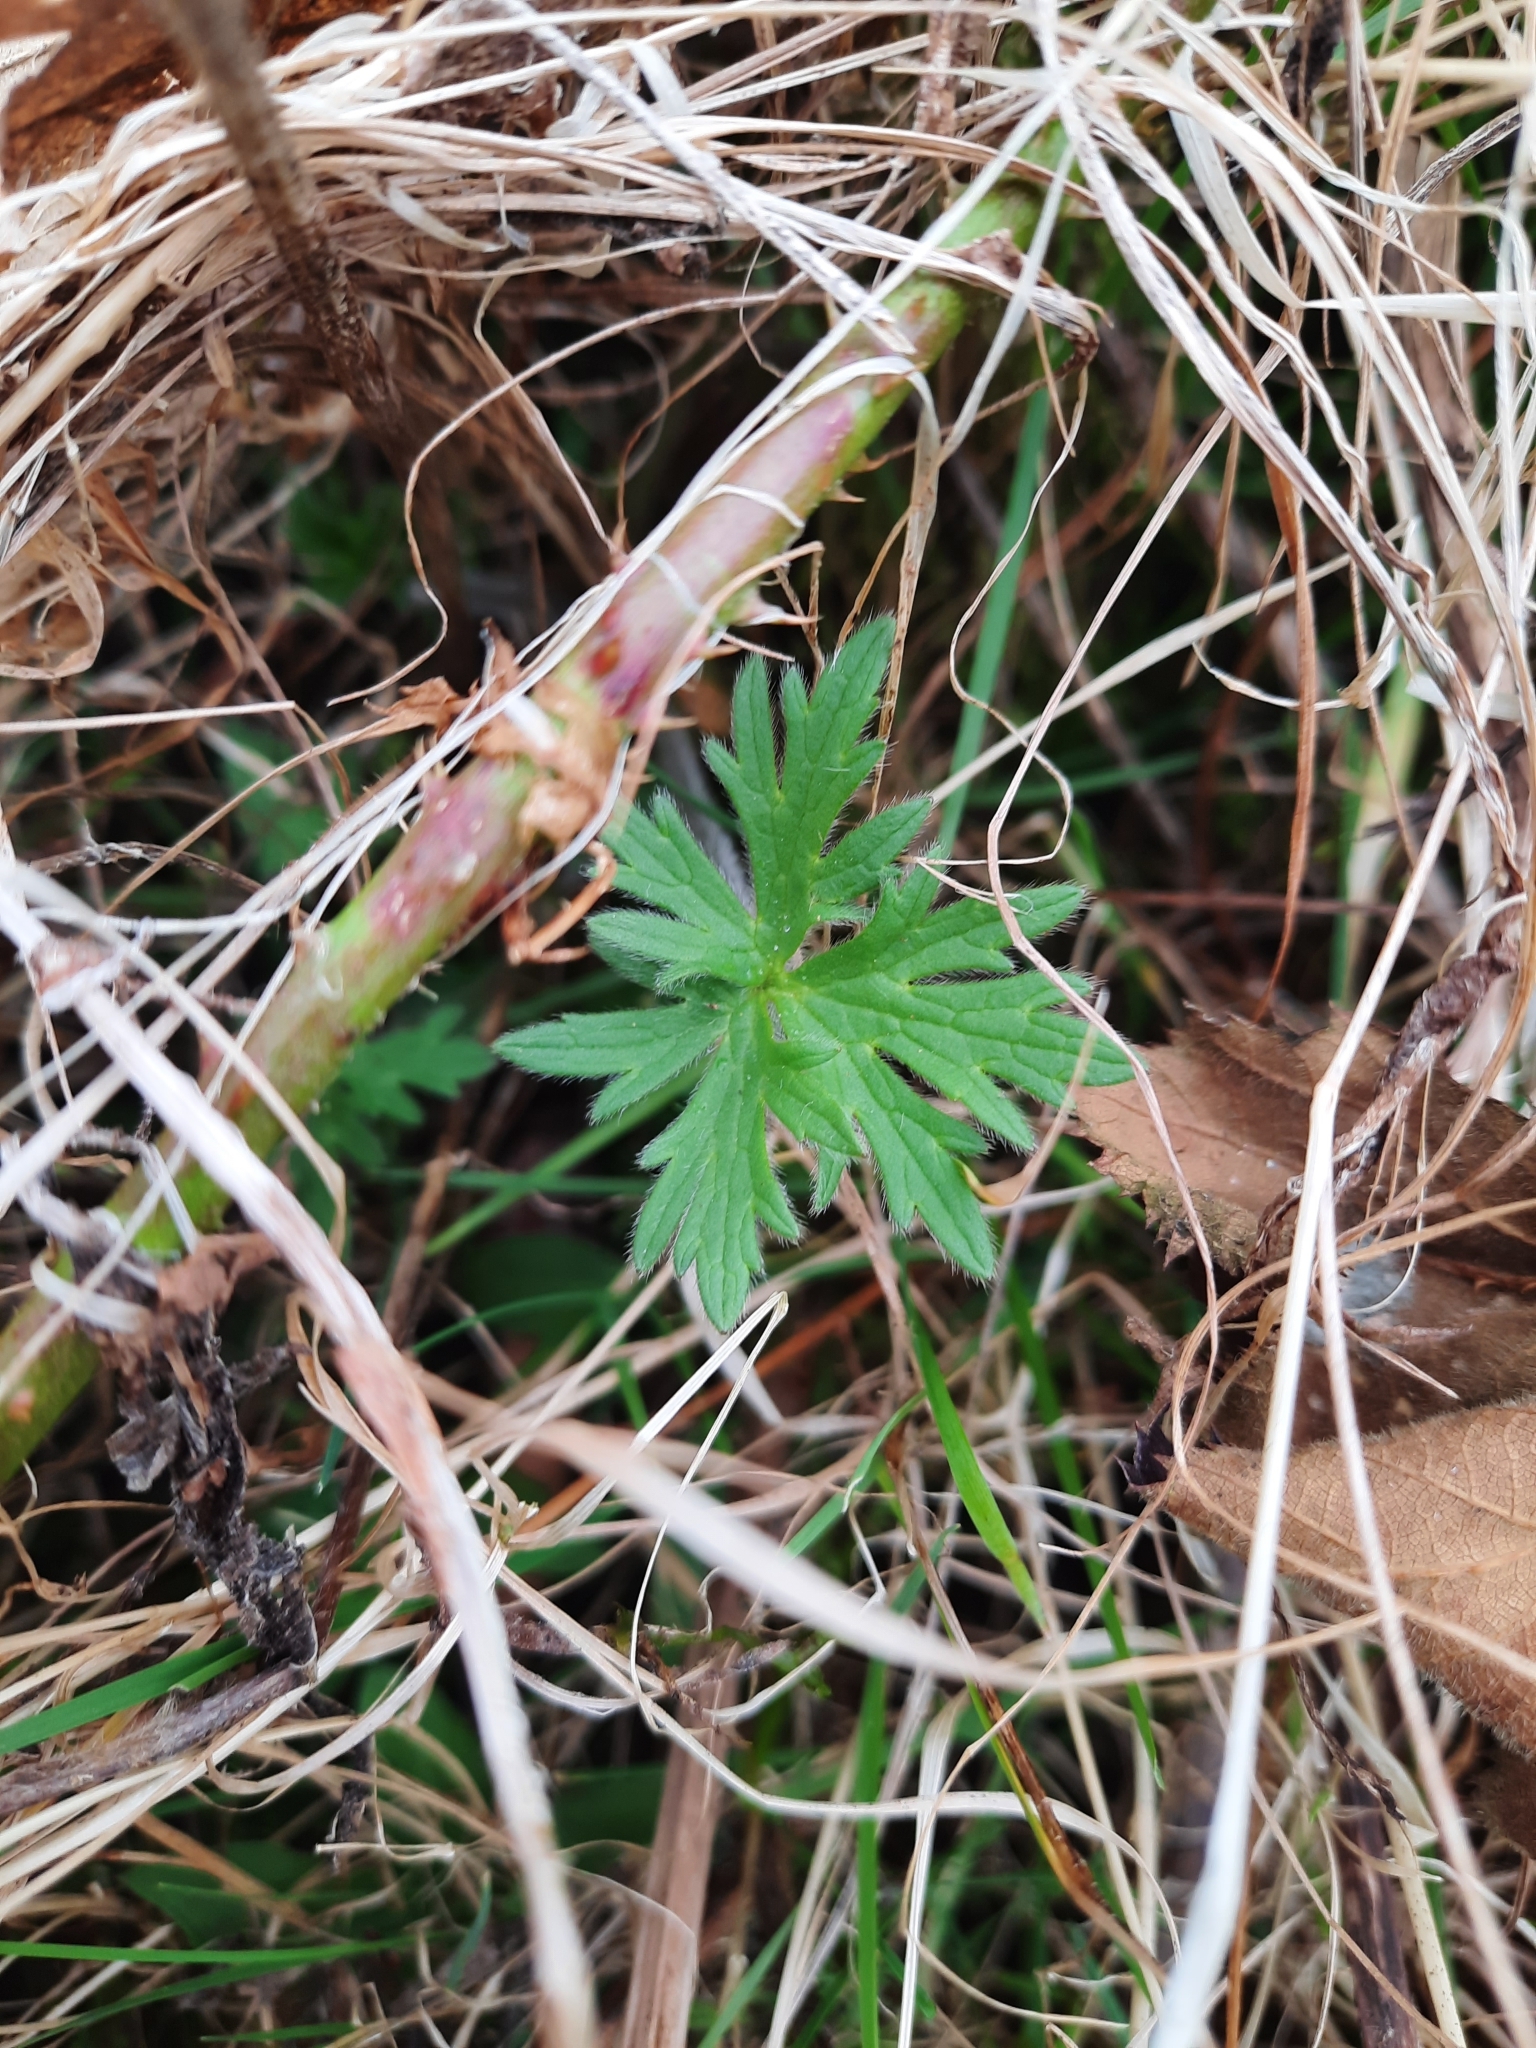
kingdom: Plantae
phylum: Tracheophyta
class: Magnoliopsida
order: Ranunculales
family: Ranunculaceae
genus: Ranunculus
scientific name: Ranunculus acris
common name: Meadow buttercup
